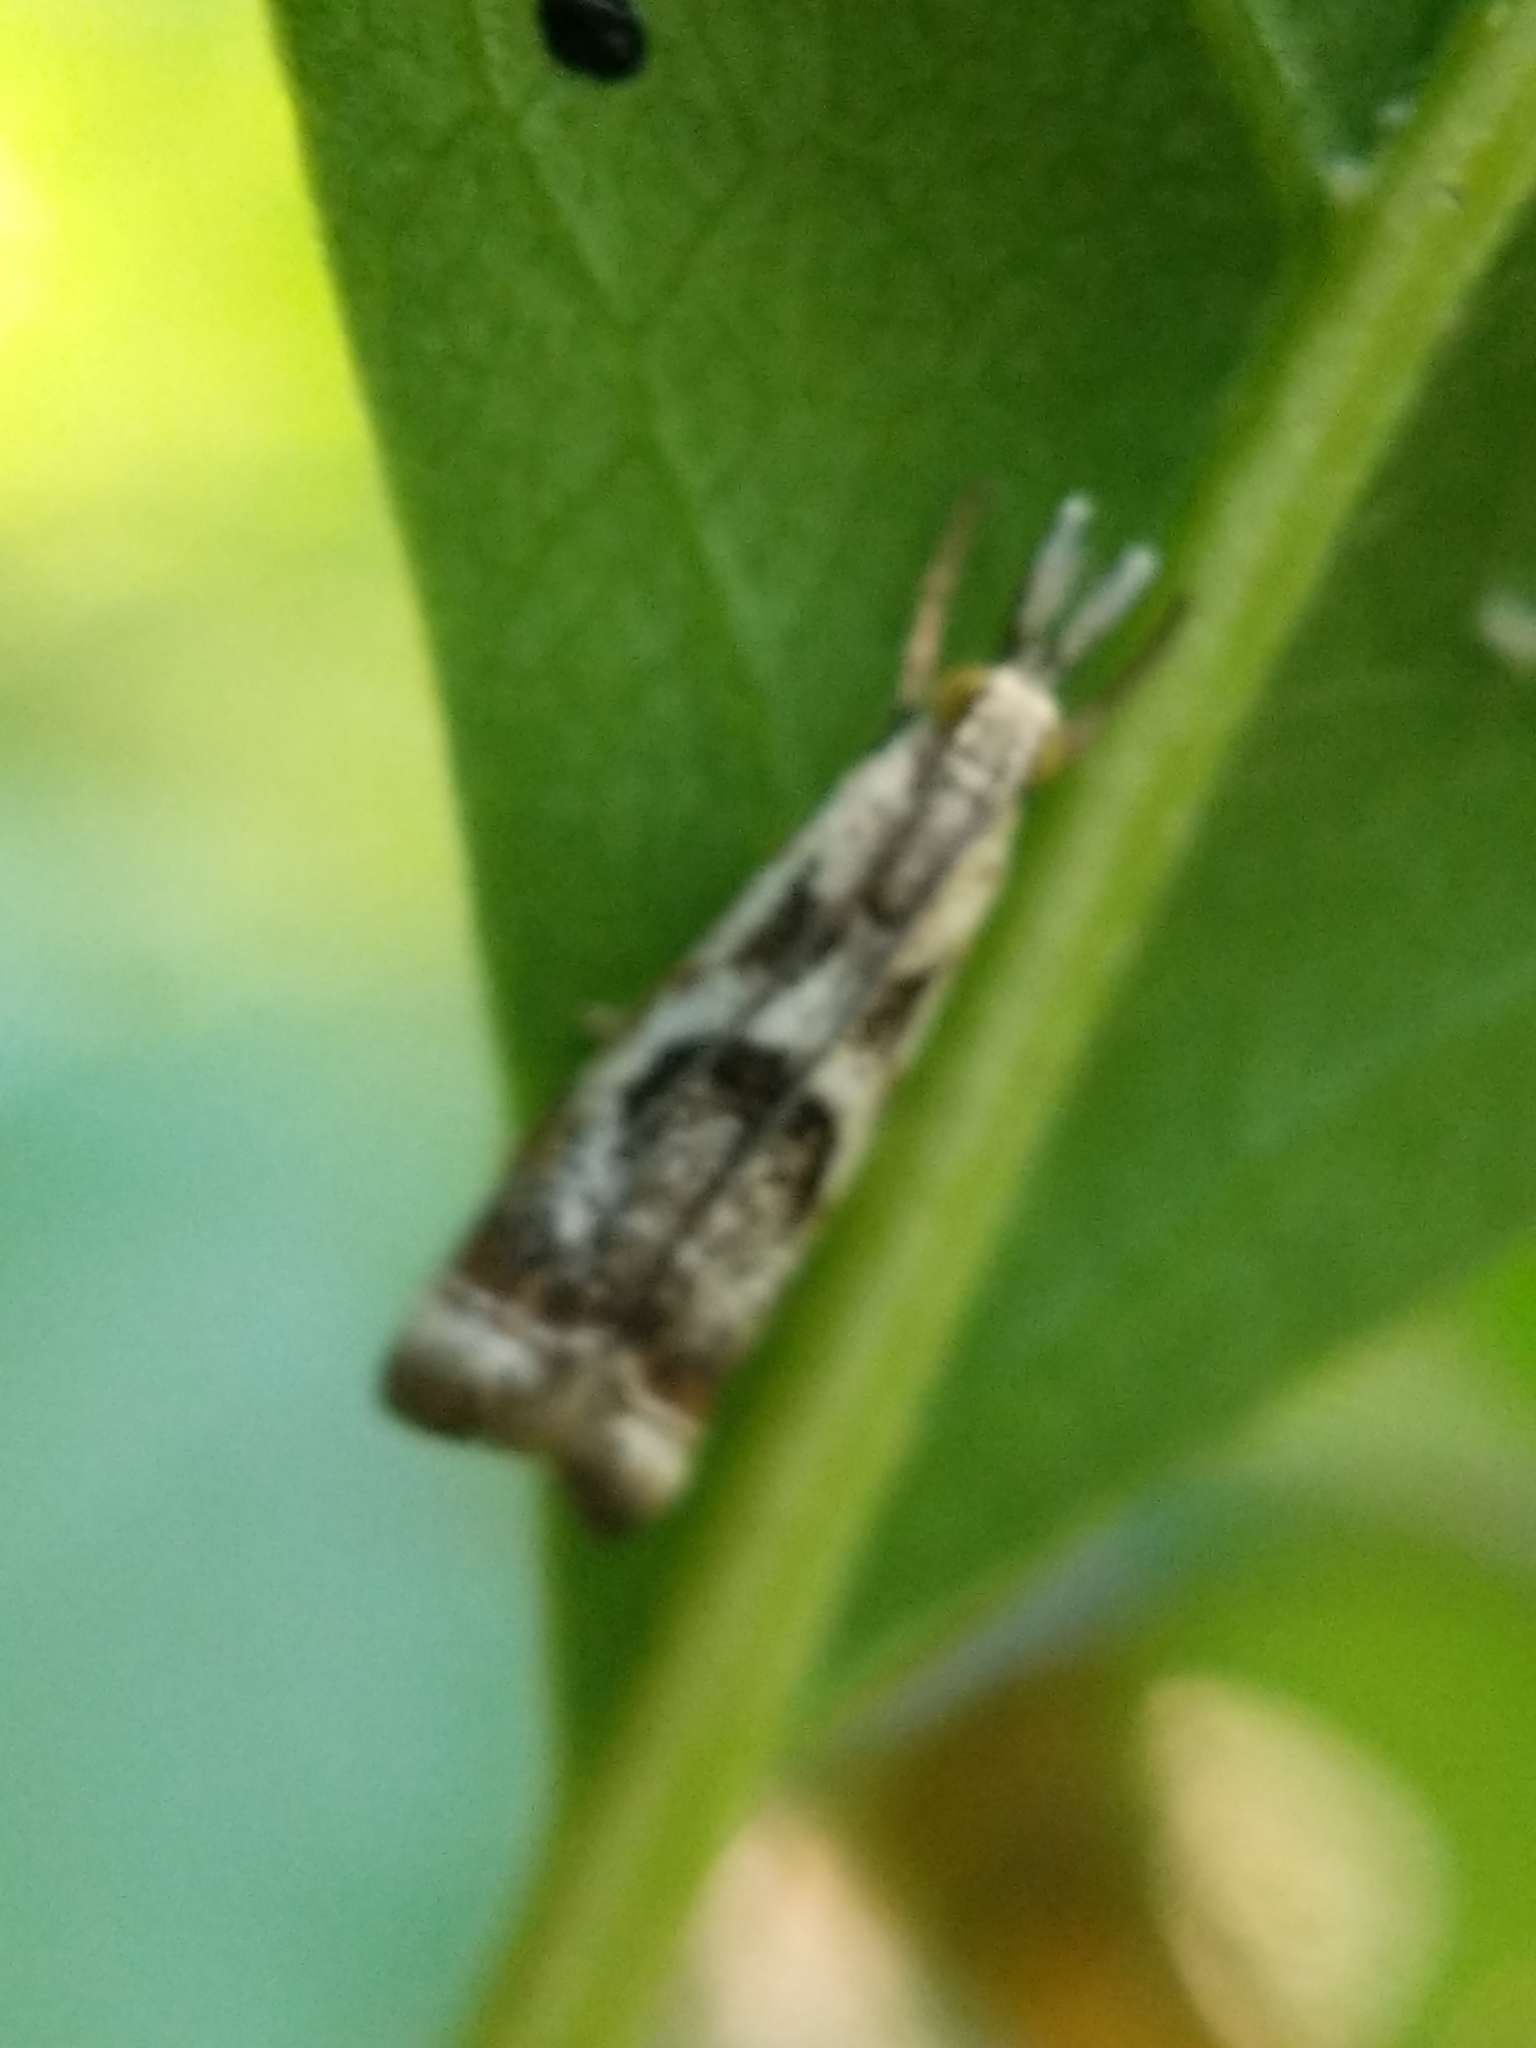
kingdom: Animalia
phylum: Arthropoda
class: Insecta
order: Lepidoptera
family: Crambidae
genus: Microcrambus
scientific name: Microcrambus elegans
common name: Elegant grass-veneer
